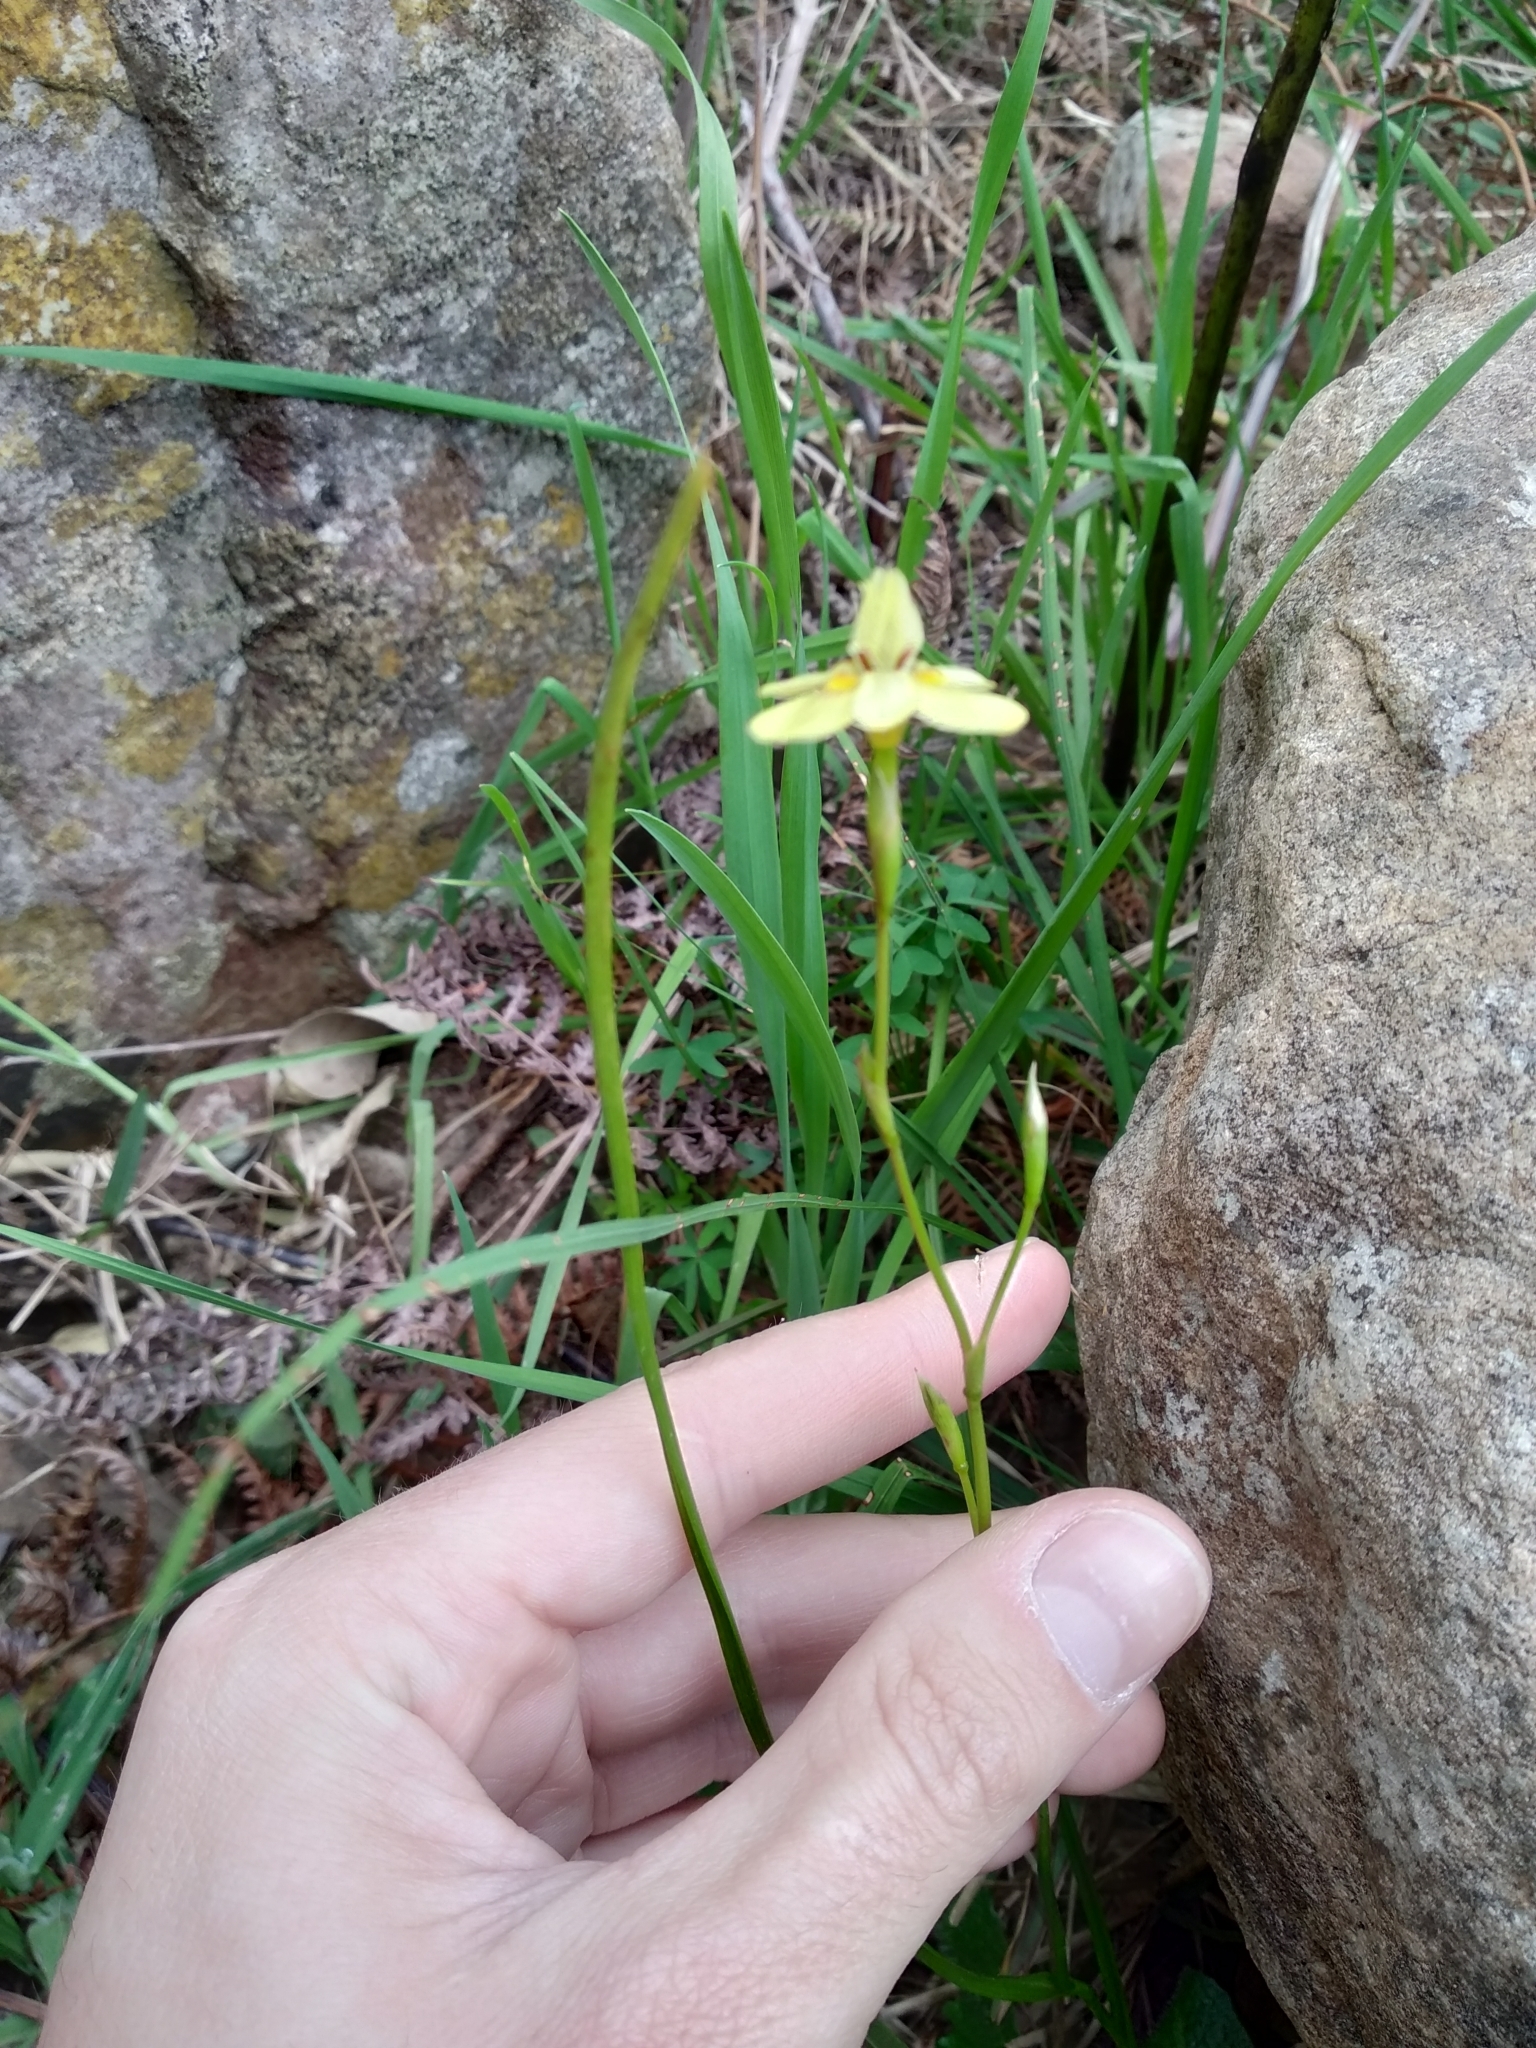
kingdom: Plantae
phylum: Tracheophyta
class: Liliopsida
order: Asparagales
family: Iridaceae
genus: Moraea
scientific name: Moraea gawleri
